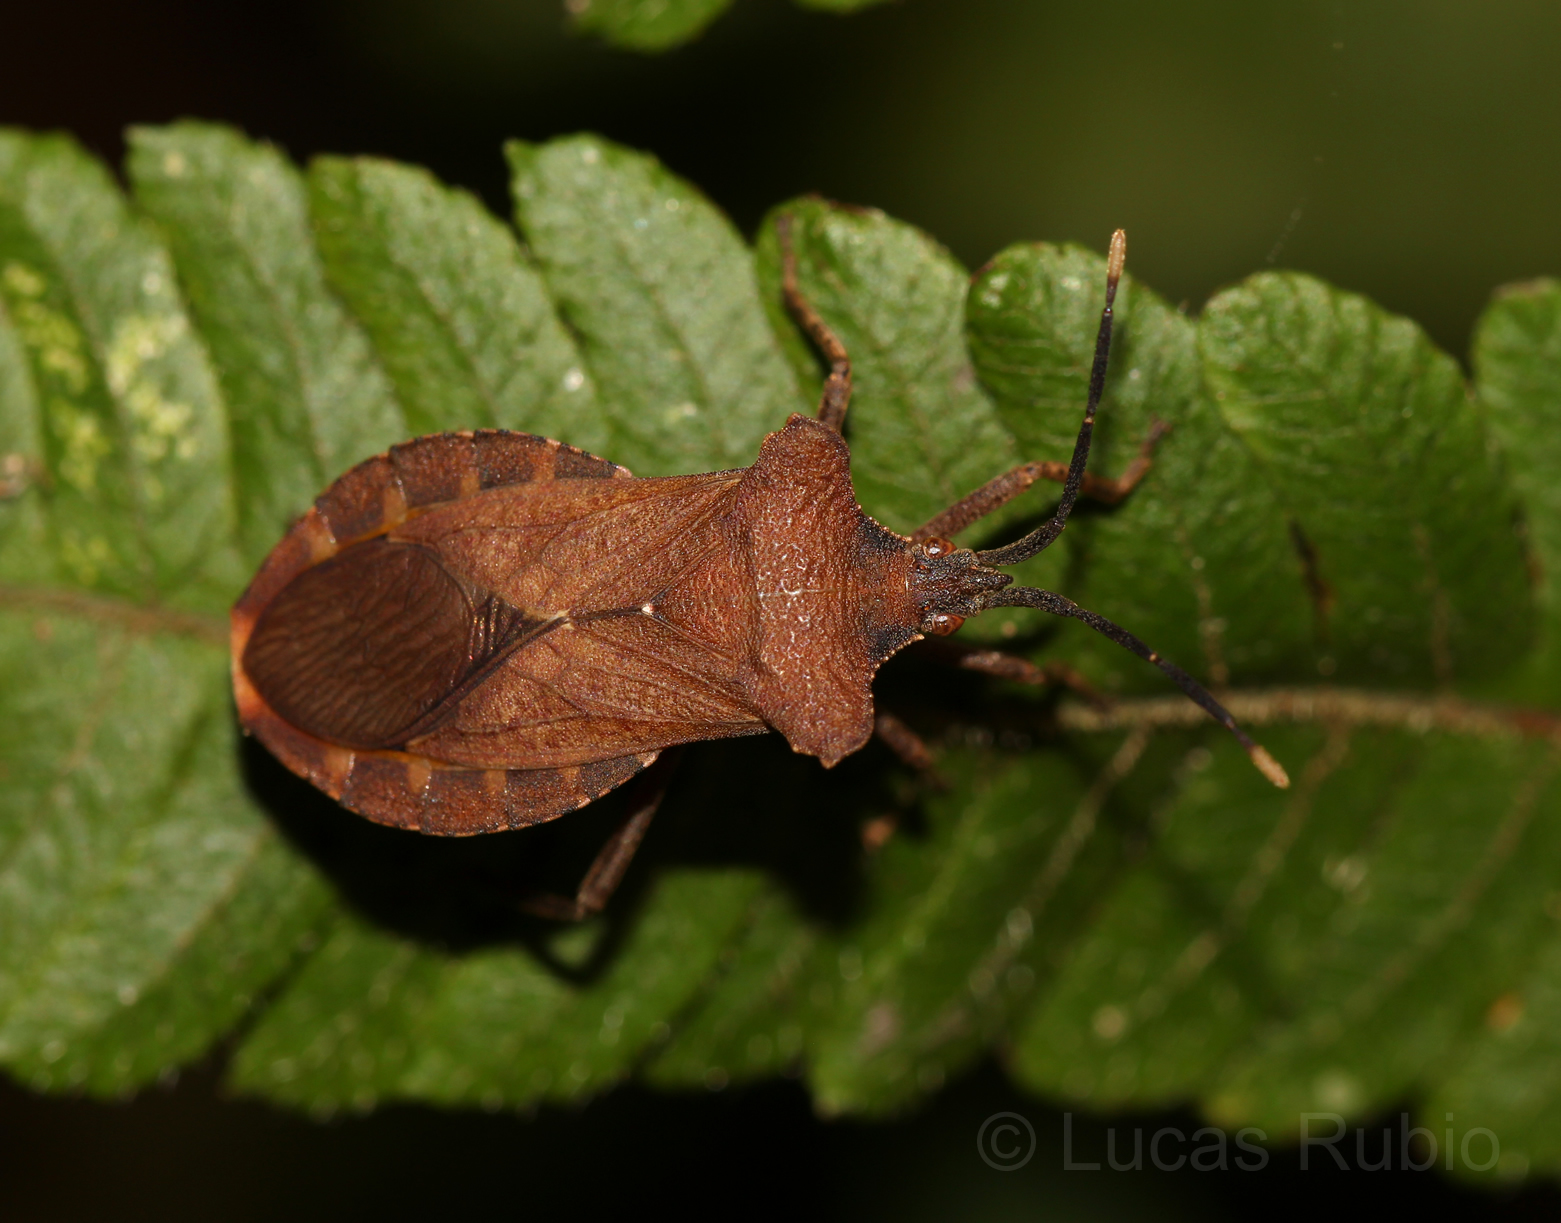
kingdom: Animalia
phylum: Arthropoda
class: Insecta
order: Hemiptera
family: Coreidae
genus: Sethenira
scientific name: Sethenira testacea
